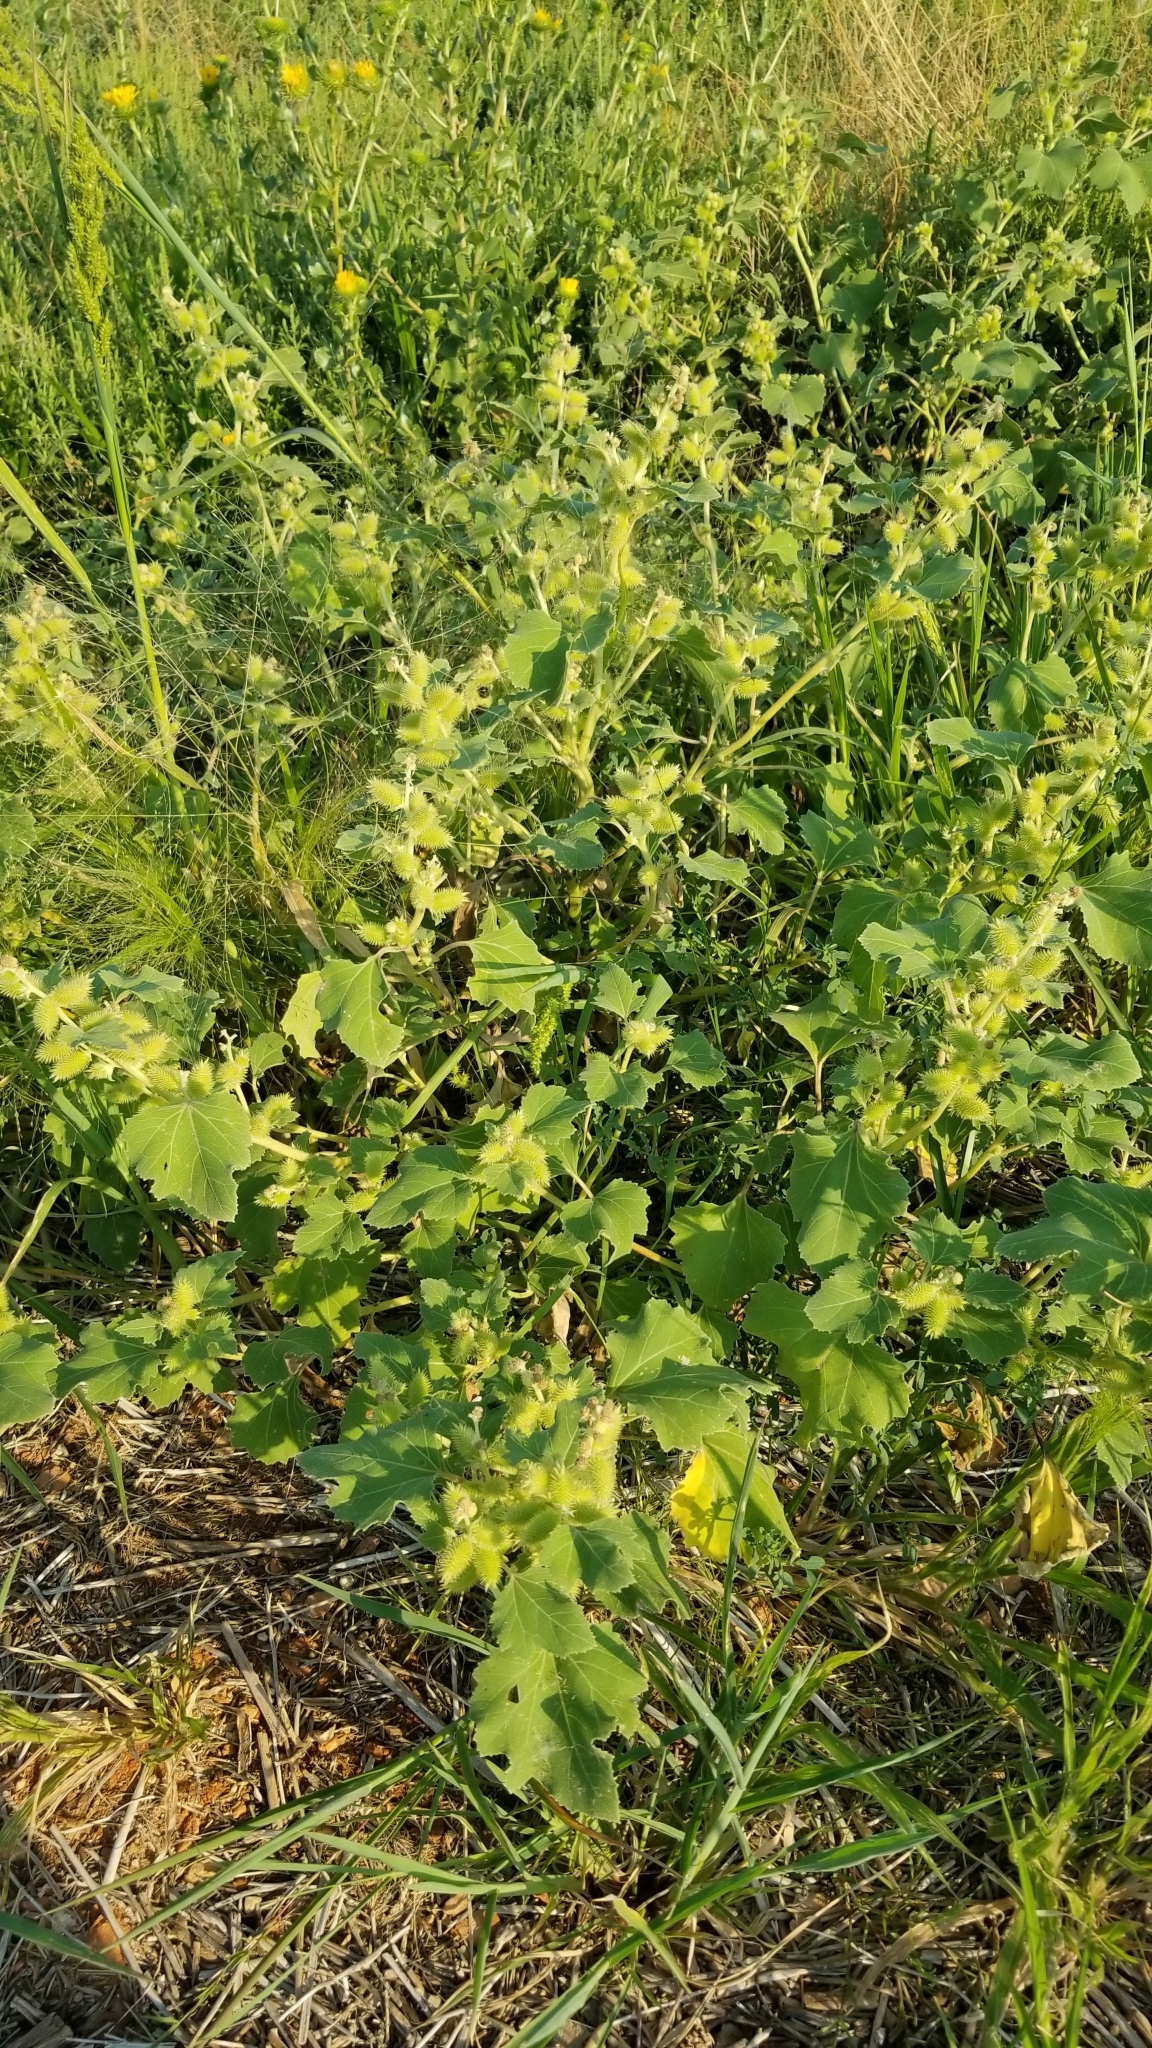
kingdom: Plantae
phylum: Tracheophyta
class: Magnoliopsida
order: Asterales
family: Asteraceae
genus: Xanthium
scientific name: Xanthium strumarium
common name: Rough cocklebur
